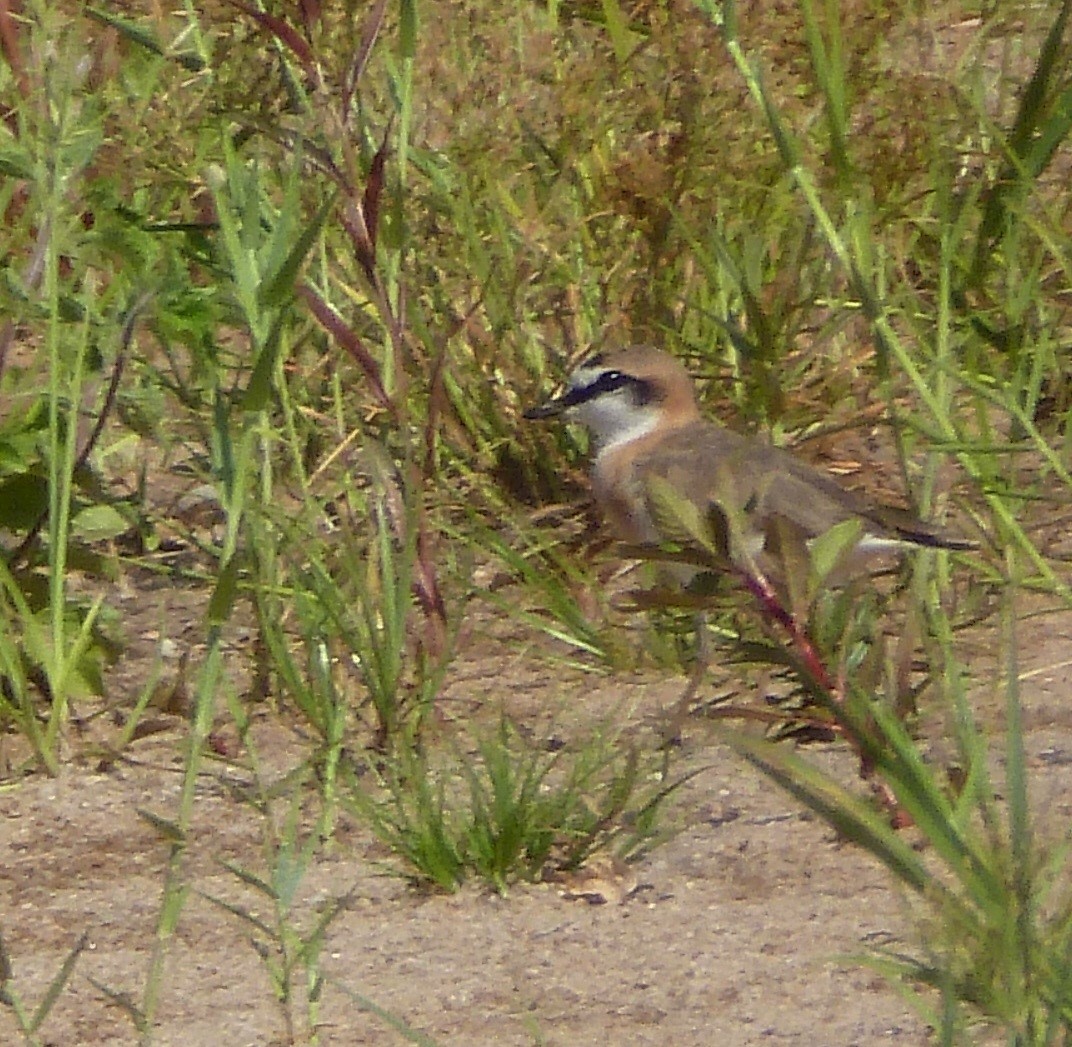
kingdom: Animalia
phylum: Chordata
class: Aves
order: Charadriiformes
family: Charadriidae
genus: Anarhynchus
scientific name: Anarhynchus
